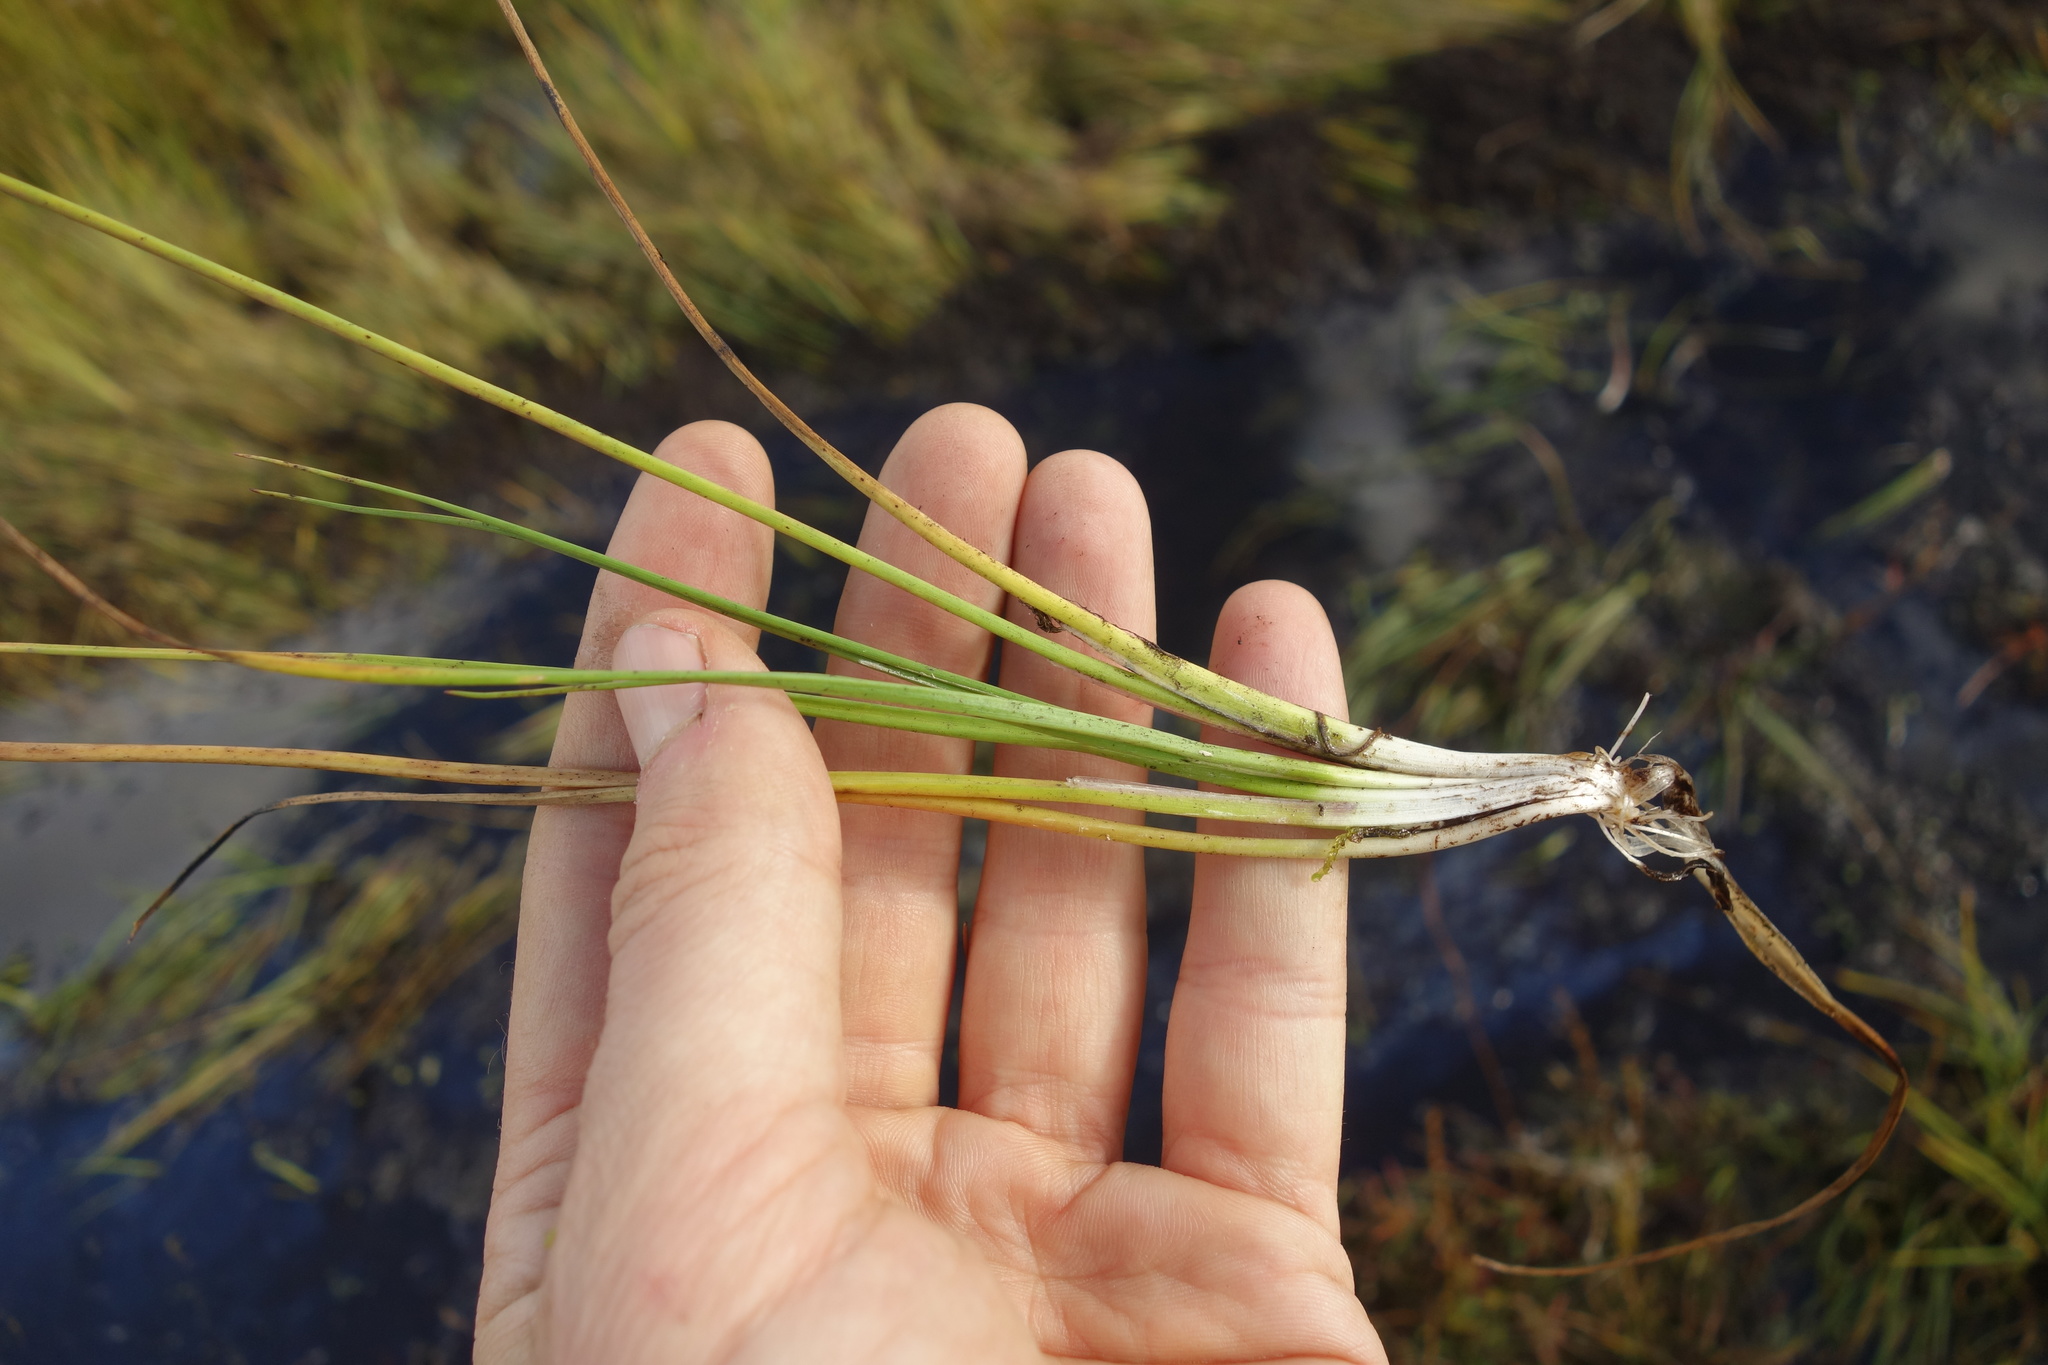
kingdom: Plantae
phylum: Tracheophyta
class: Liliopsida
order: Alismatales
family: Juncaginaceae
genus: Triglochin
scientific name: Triglochin palustris
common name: Marsh arrowgrass
